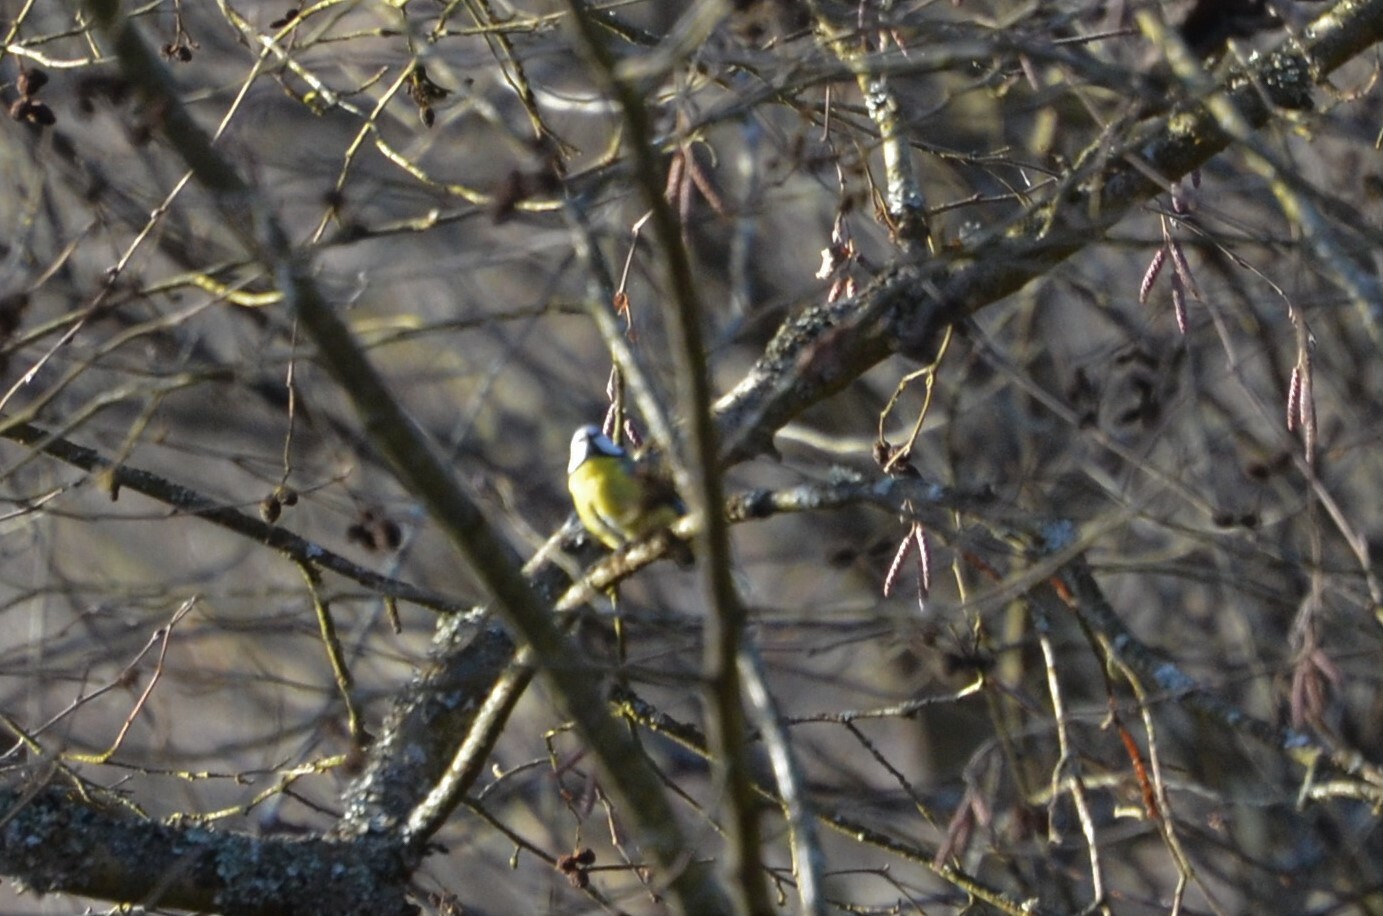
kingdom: Animalia
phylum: Chordata
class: Aves
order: Passeriformes
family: Paridae
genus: Cyanistes
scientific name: Cyanistes caeruleus
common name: Eurasian blue tit
